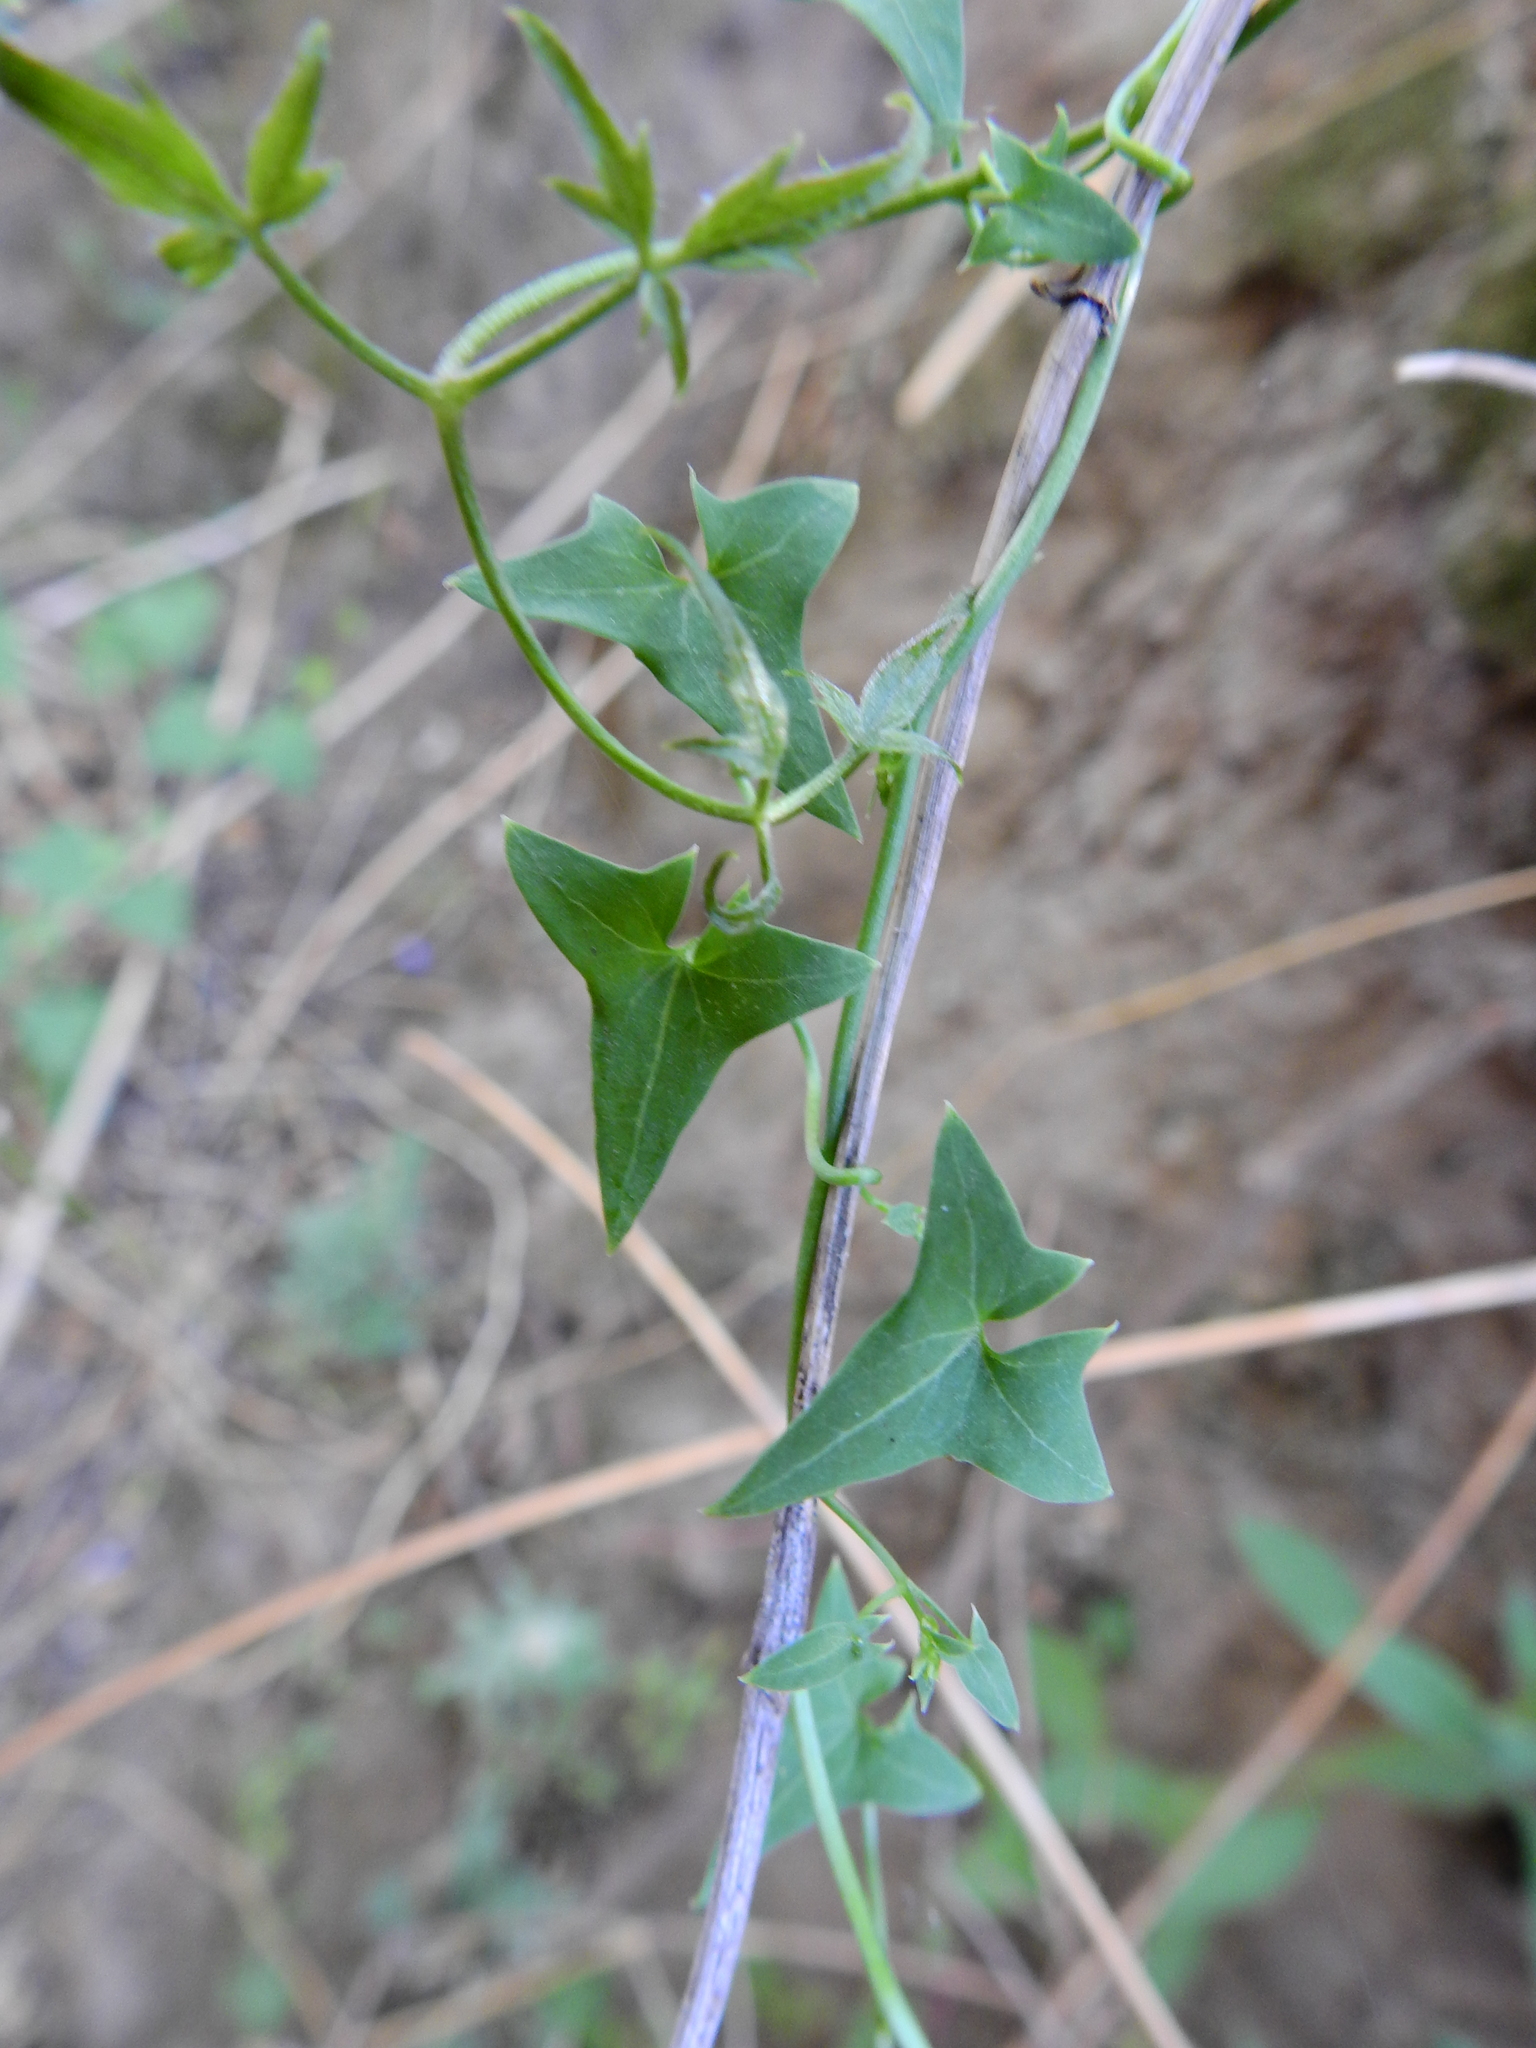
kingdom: Plantae
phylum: Tracheophyta
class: Magnoliopsida
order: Lamiales
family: Plantaginaceae
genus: Maurandella
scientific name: Maurandella antirrhiniflora
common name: Violet twining-snapdragon
